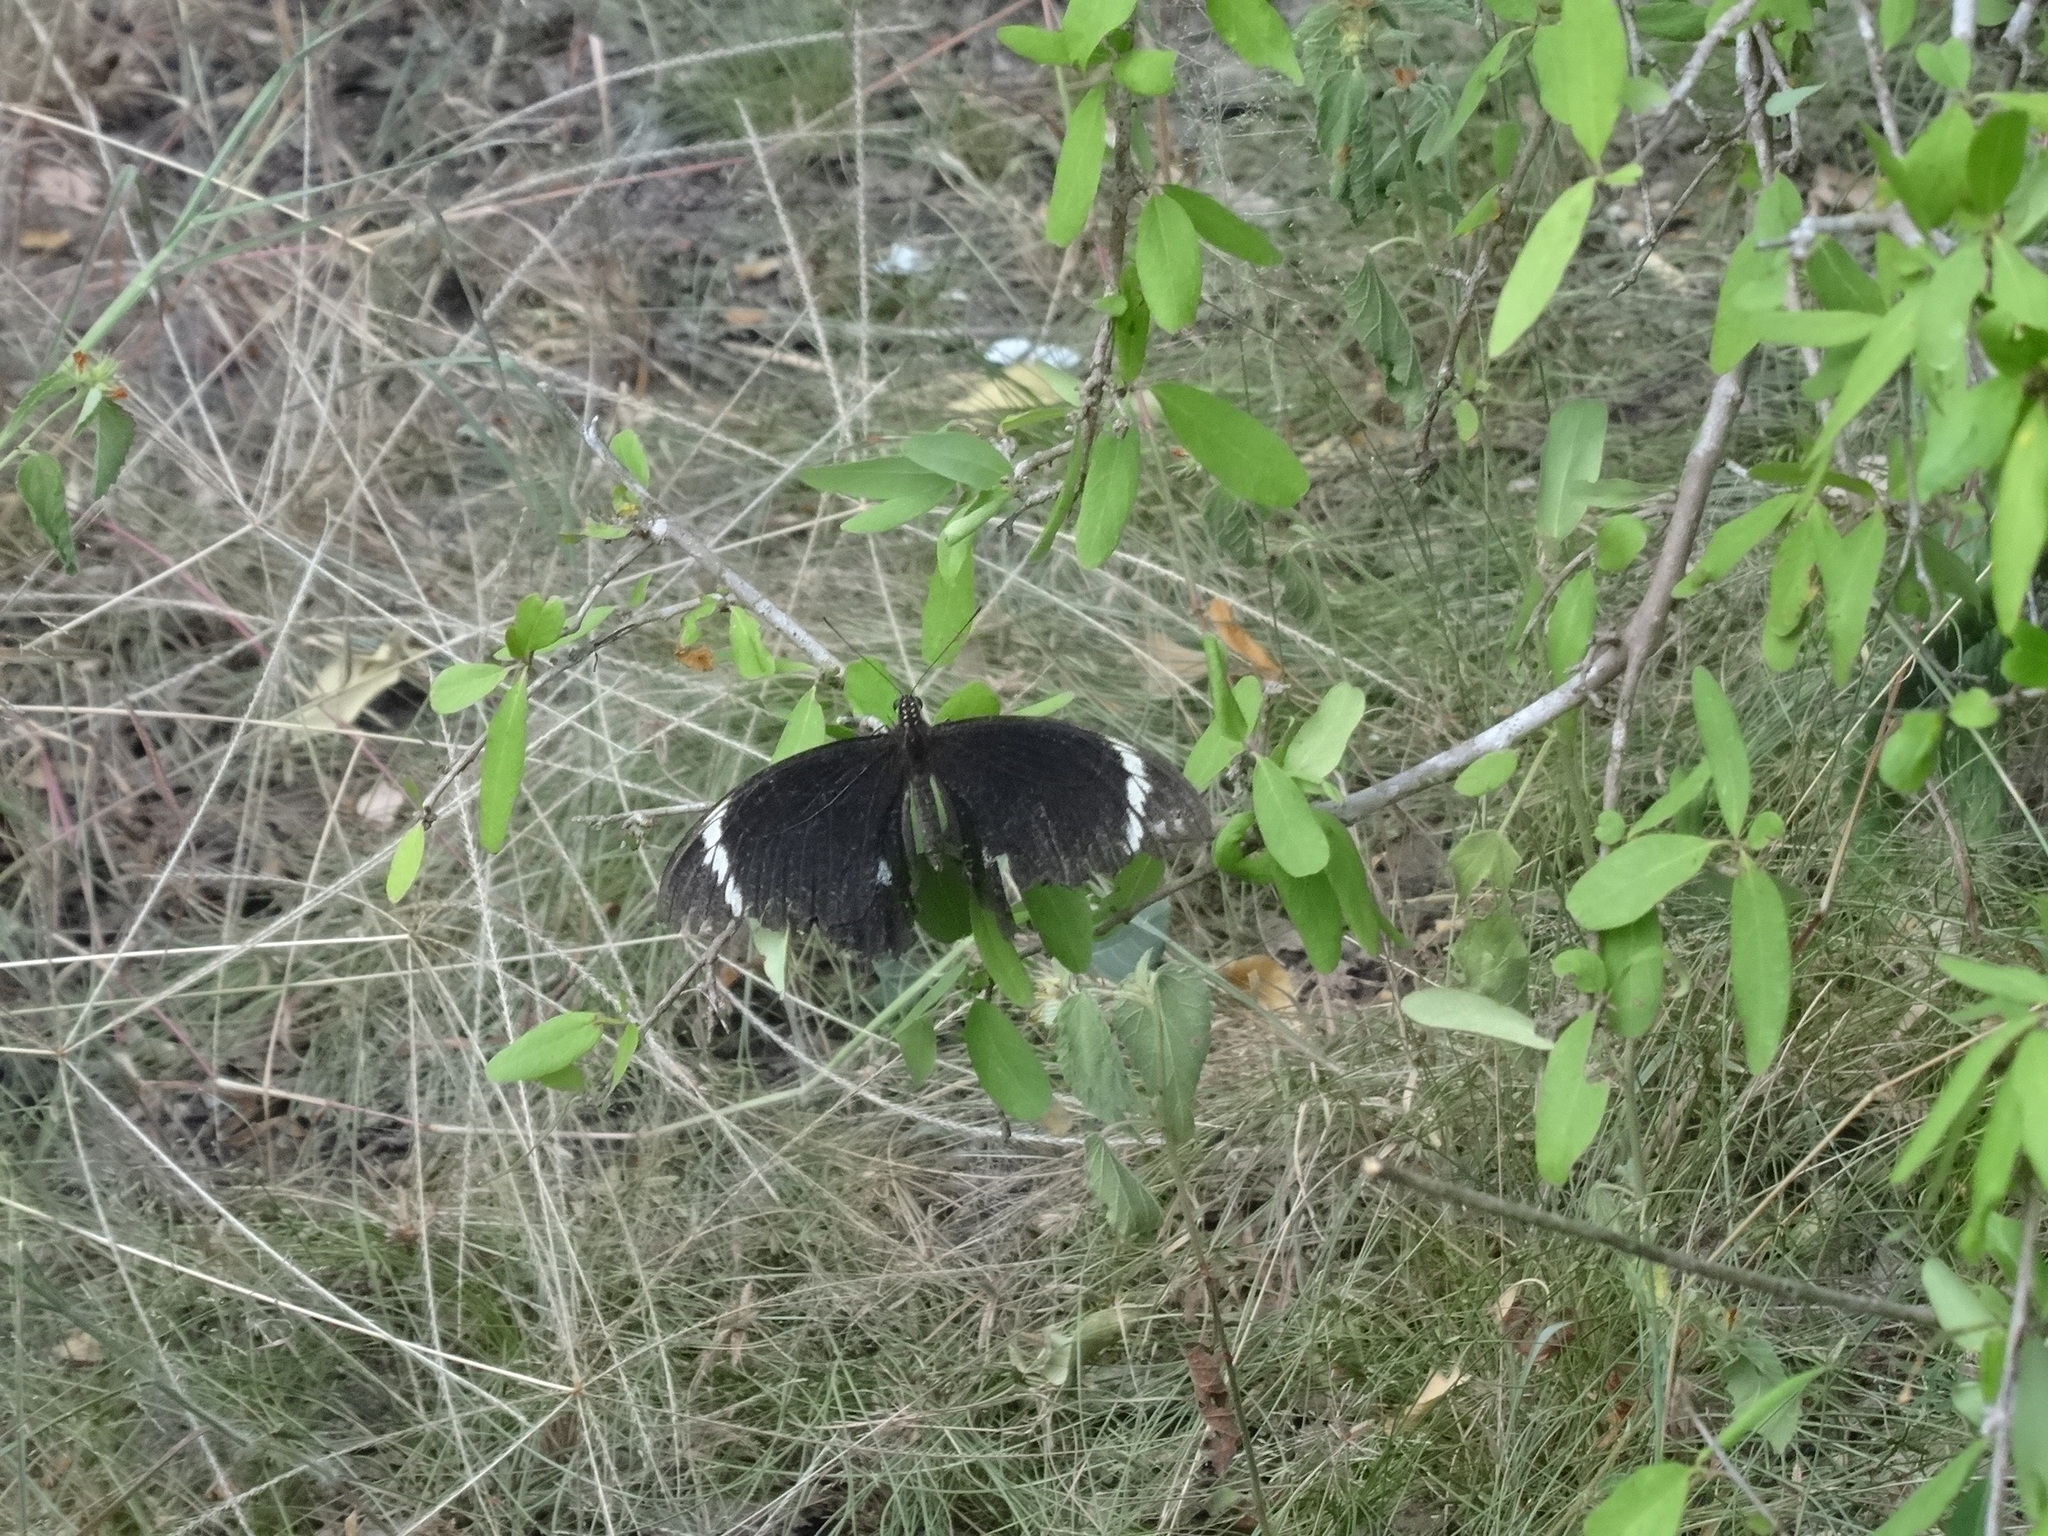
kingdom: Animalia
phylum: Arthropoda
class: Insecta
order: Lepidoptera
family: Papilionidae
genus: Papilio
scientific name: Papilio aegeus
